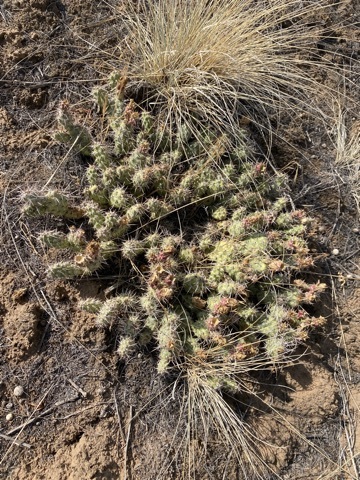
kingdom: Plantae
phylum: Tracheophyta
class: Magnoliopsida
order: Caryophyllales
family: Cactaceae
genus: Opuntia
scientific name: Opuntia fragilis
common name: Brittle cactus
